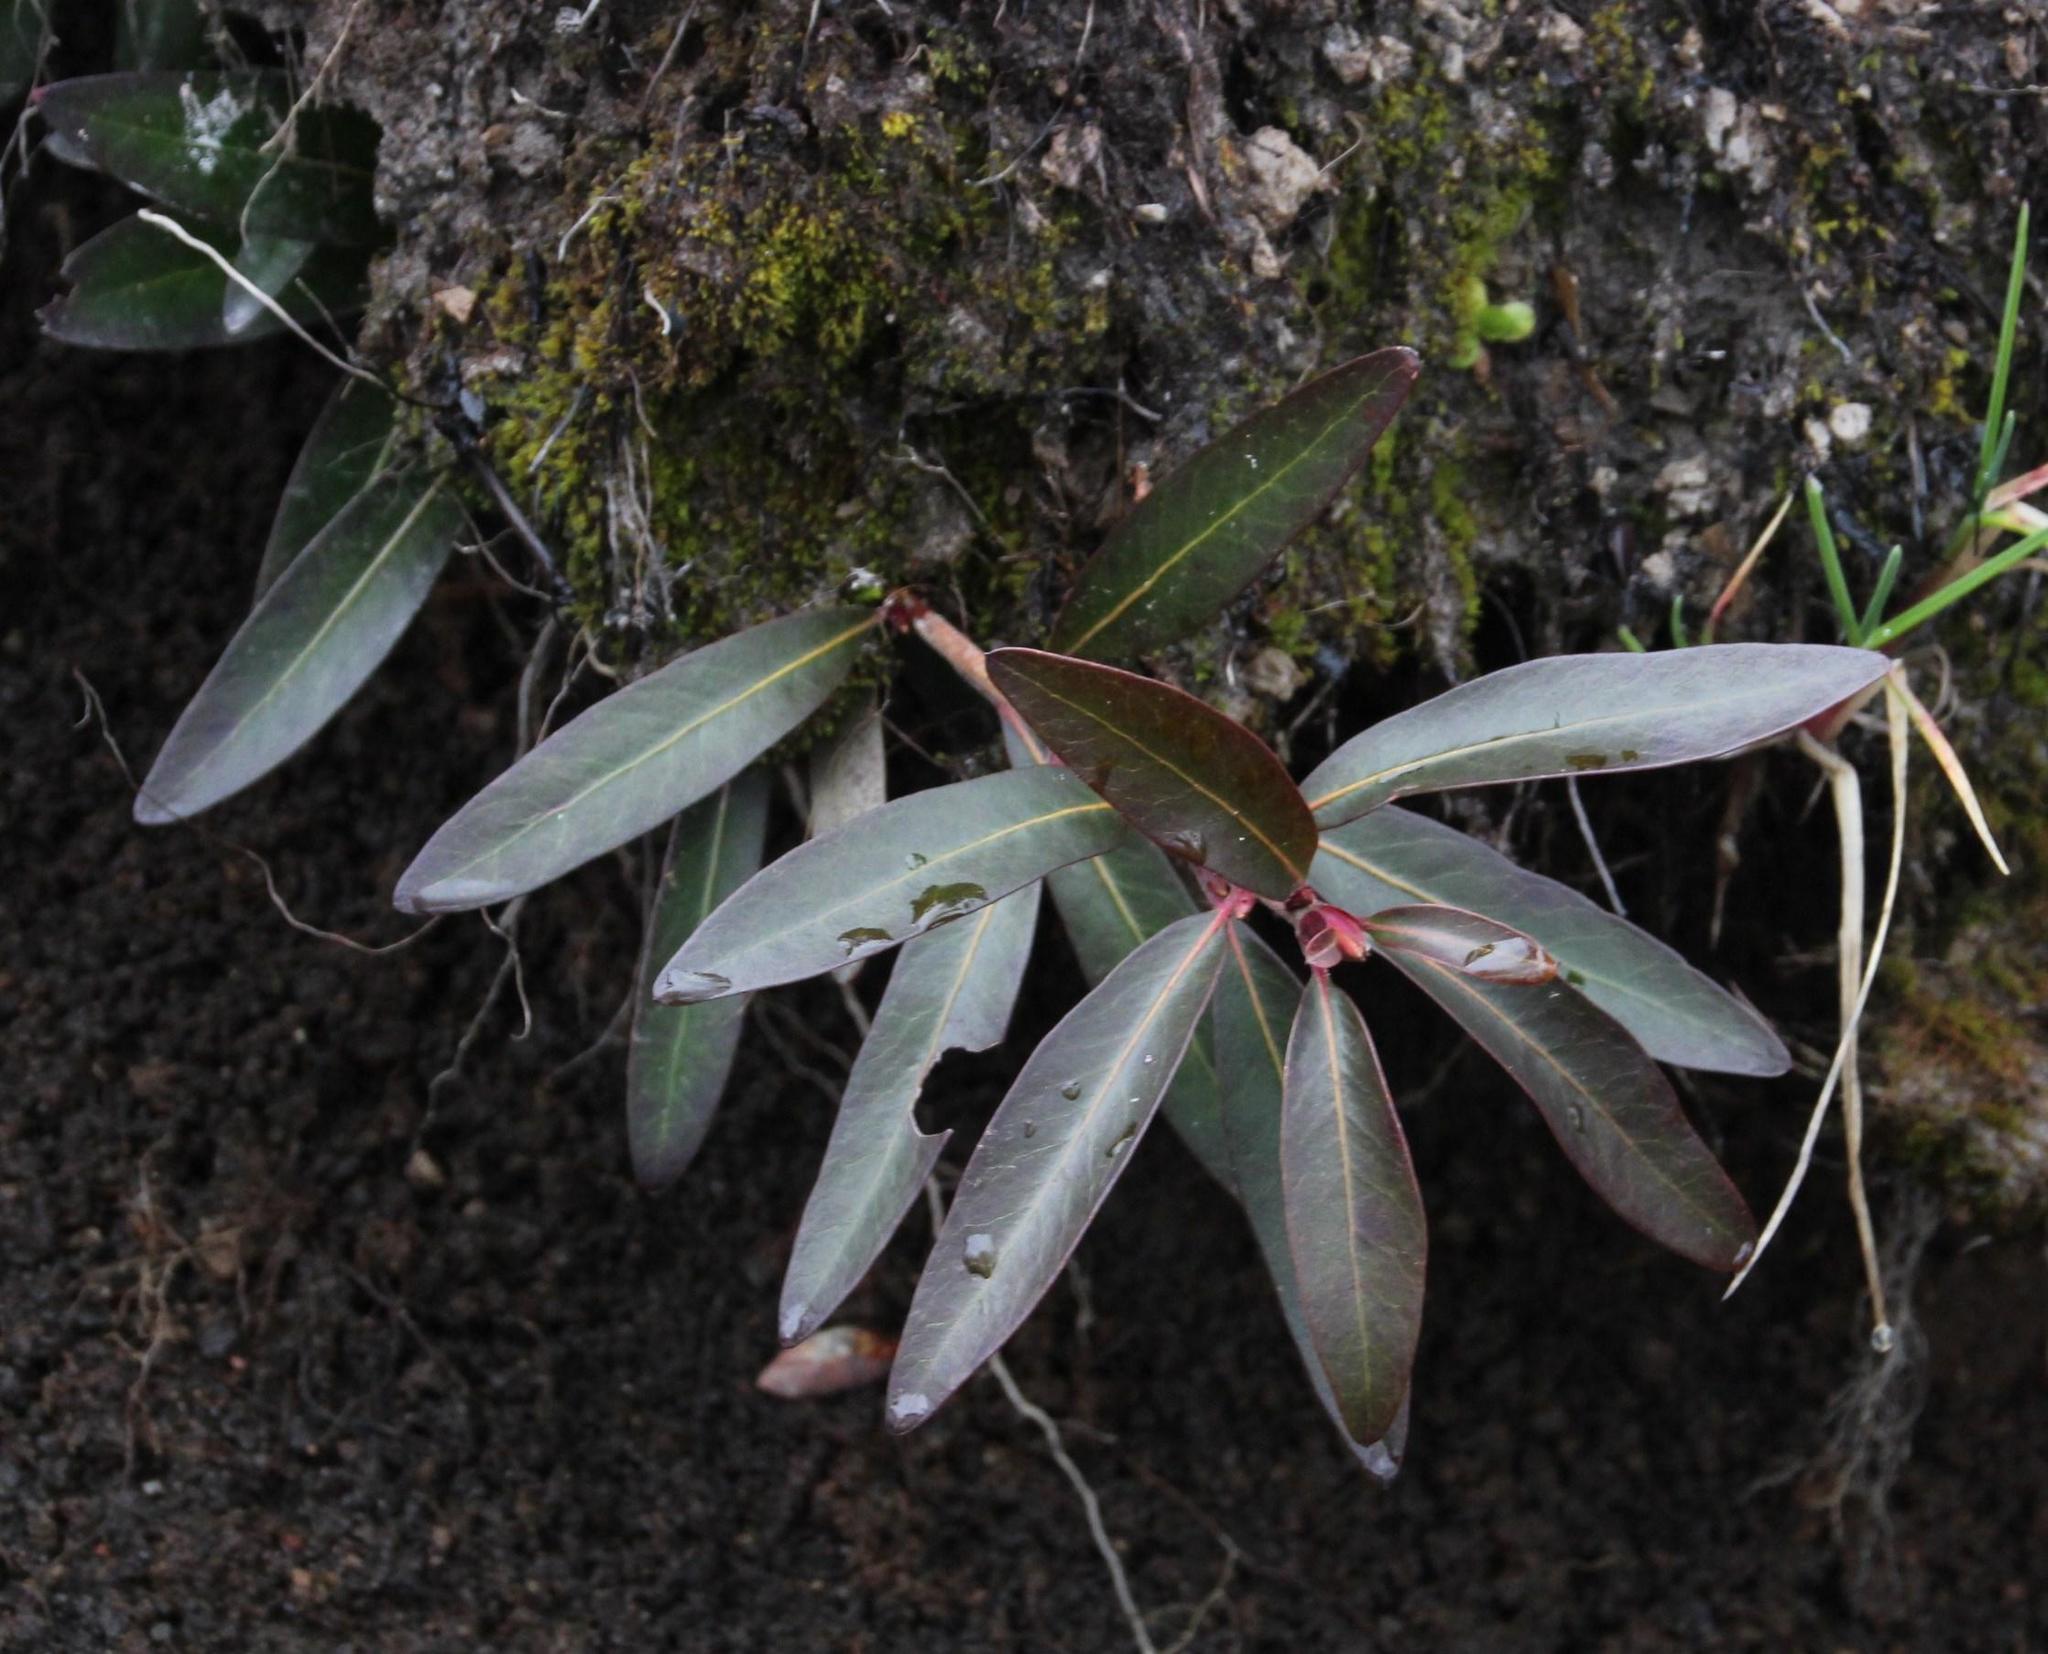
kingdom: Plantae
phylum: Tracheophyta
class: Magnoliopsida
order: Proteales
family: Proteaceae
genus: Embothrium
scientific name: Embothrium coccineum
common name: Chilean firebush
